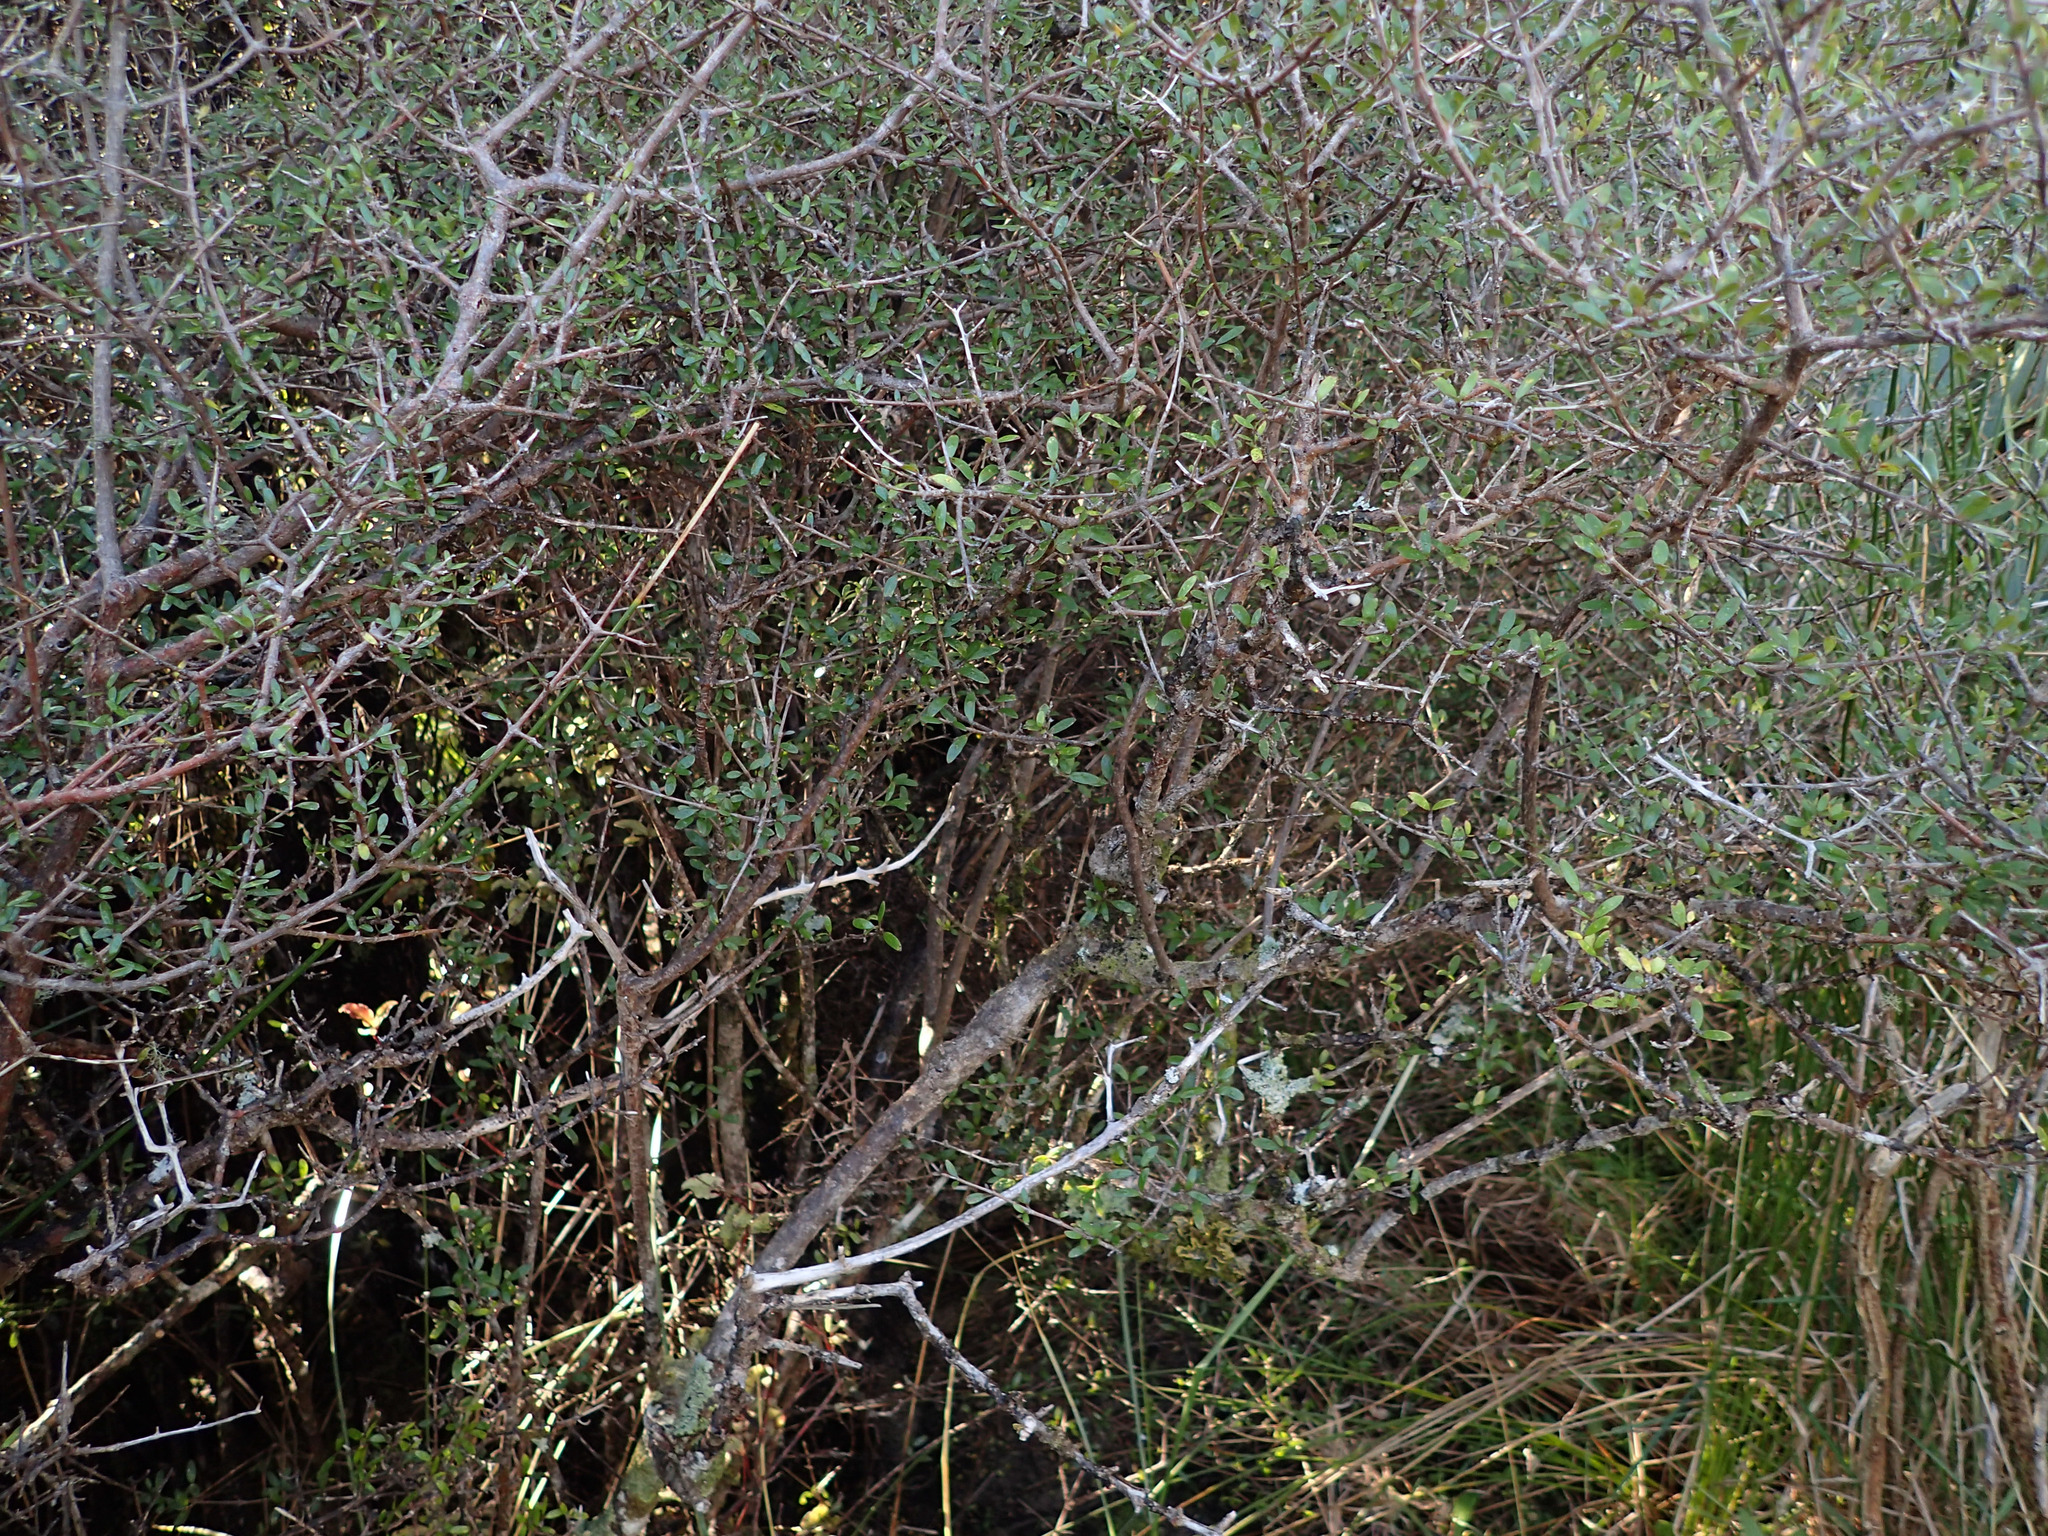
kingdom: Plantae
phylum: Tracheophyta
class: Magnoliopsida
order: Gentianales
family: Rubiaceae
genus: Coprosma
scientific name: Coprosma propinqua
